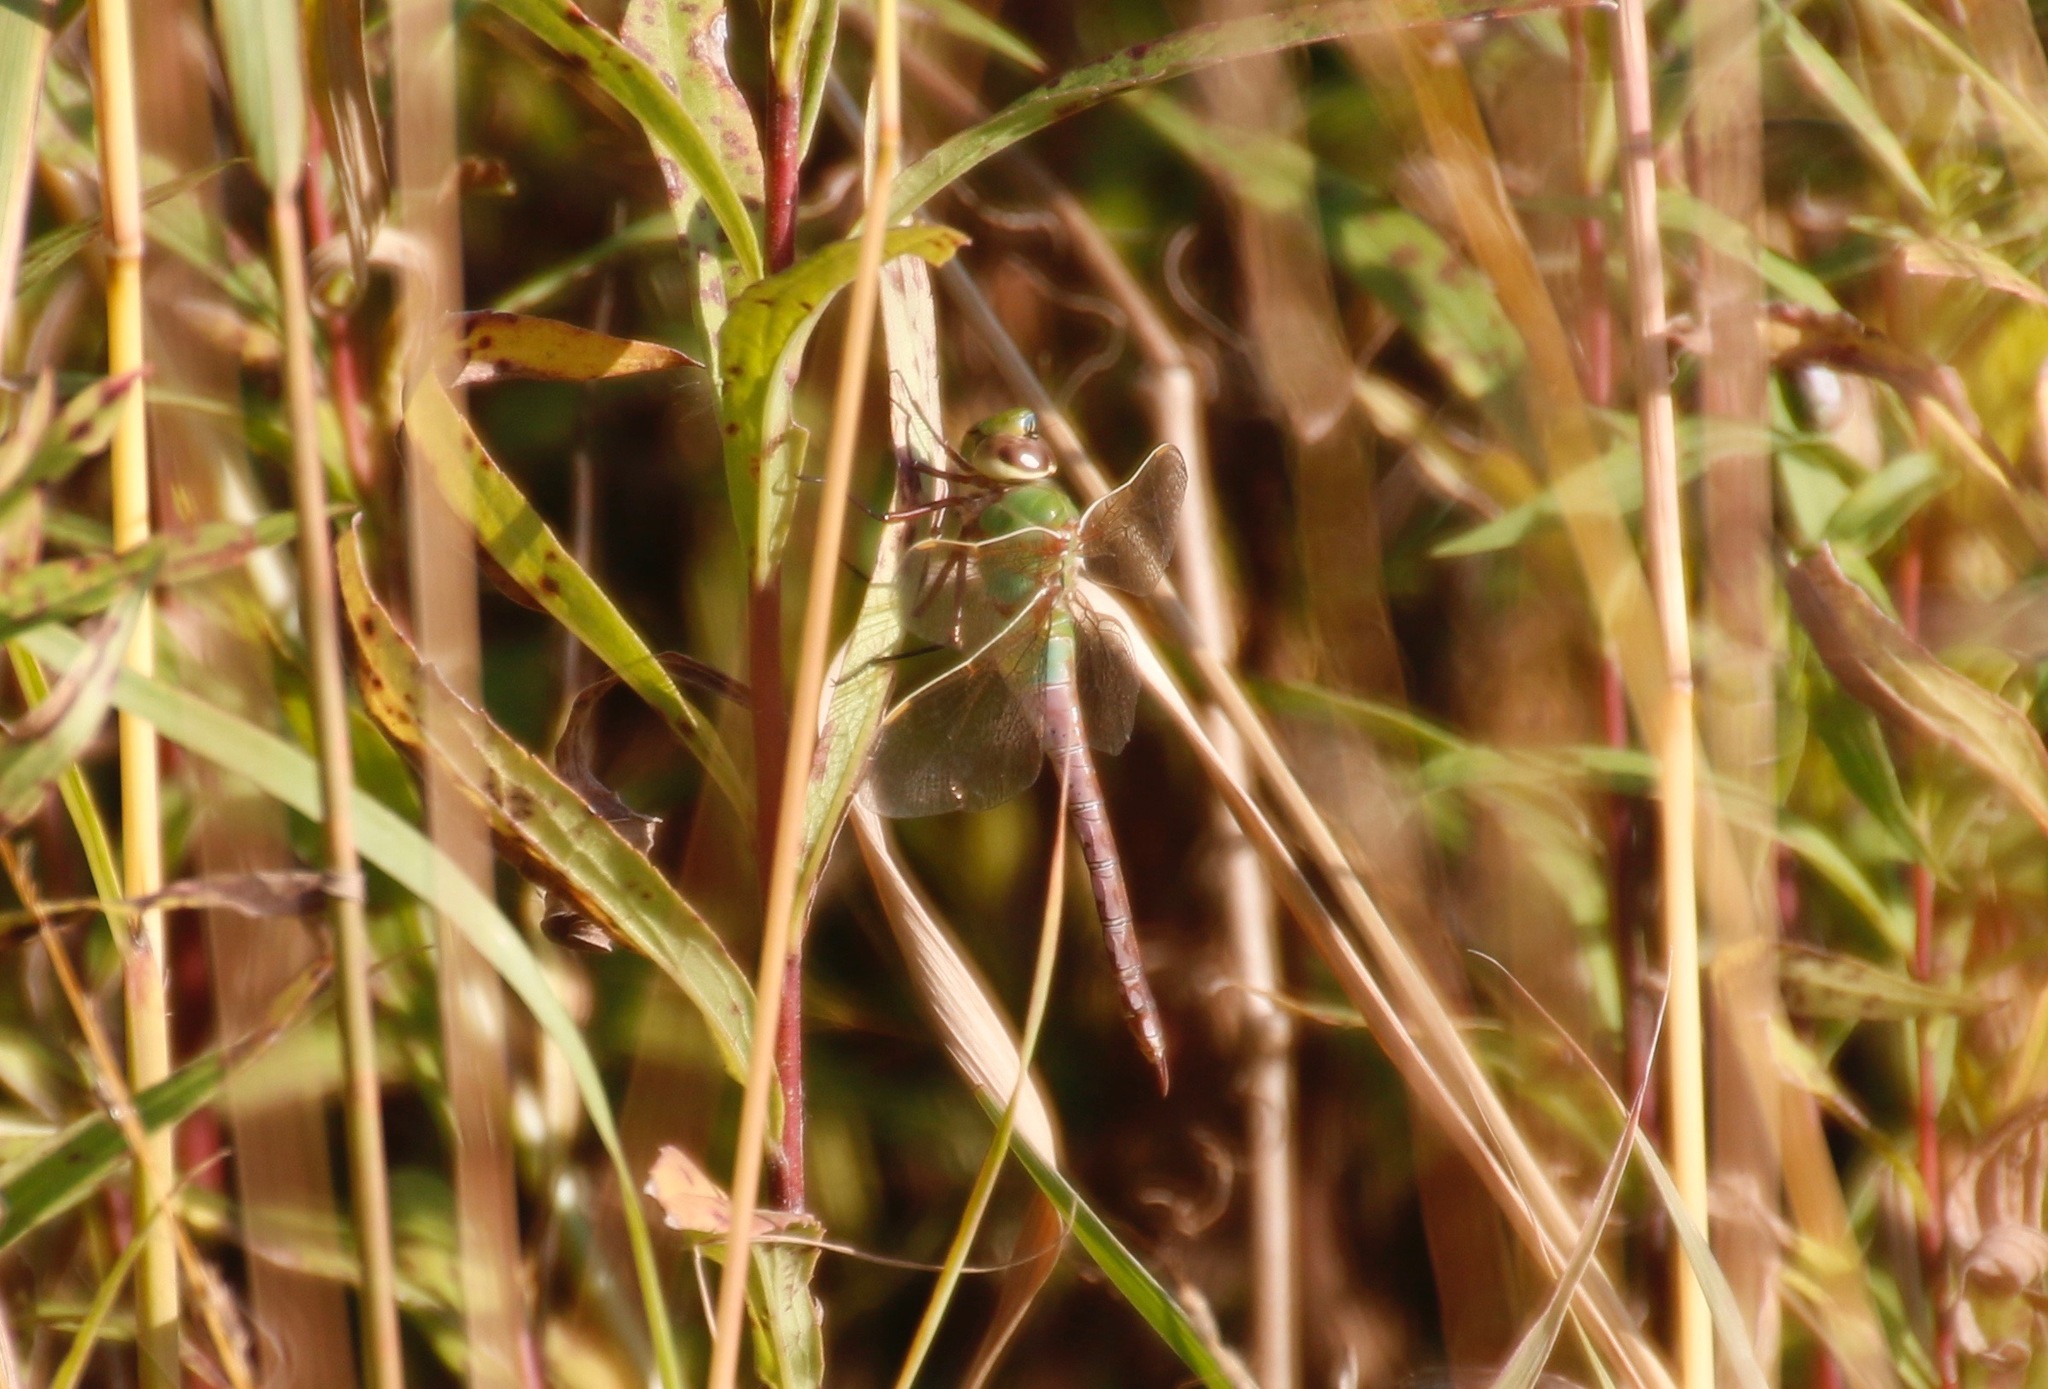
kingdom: Animalia
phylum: Arthropoda
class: Insecta
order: Odonata
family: Aeshnidae
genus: Anax
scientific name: Anax junius
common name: Common green darner
